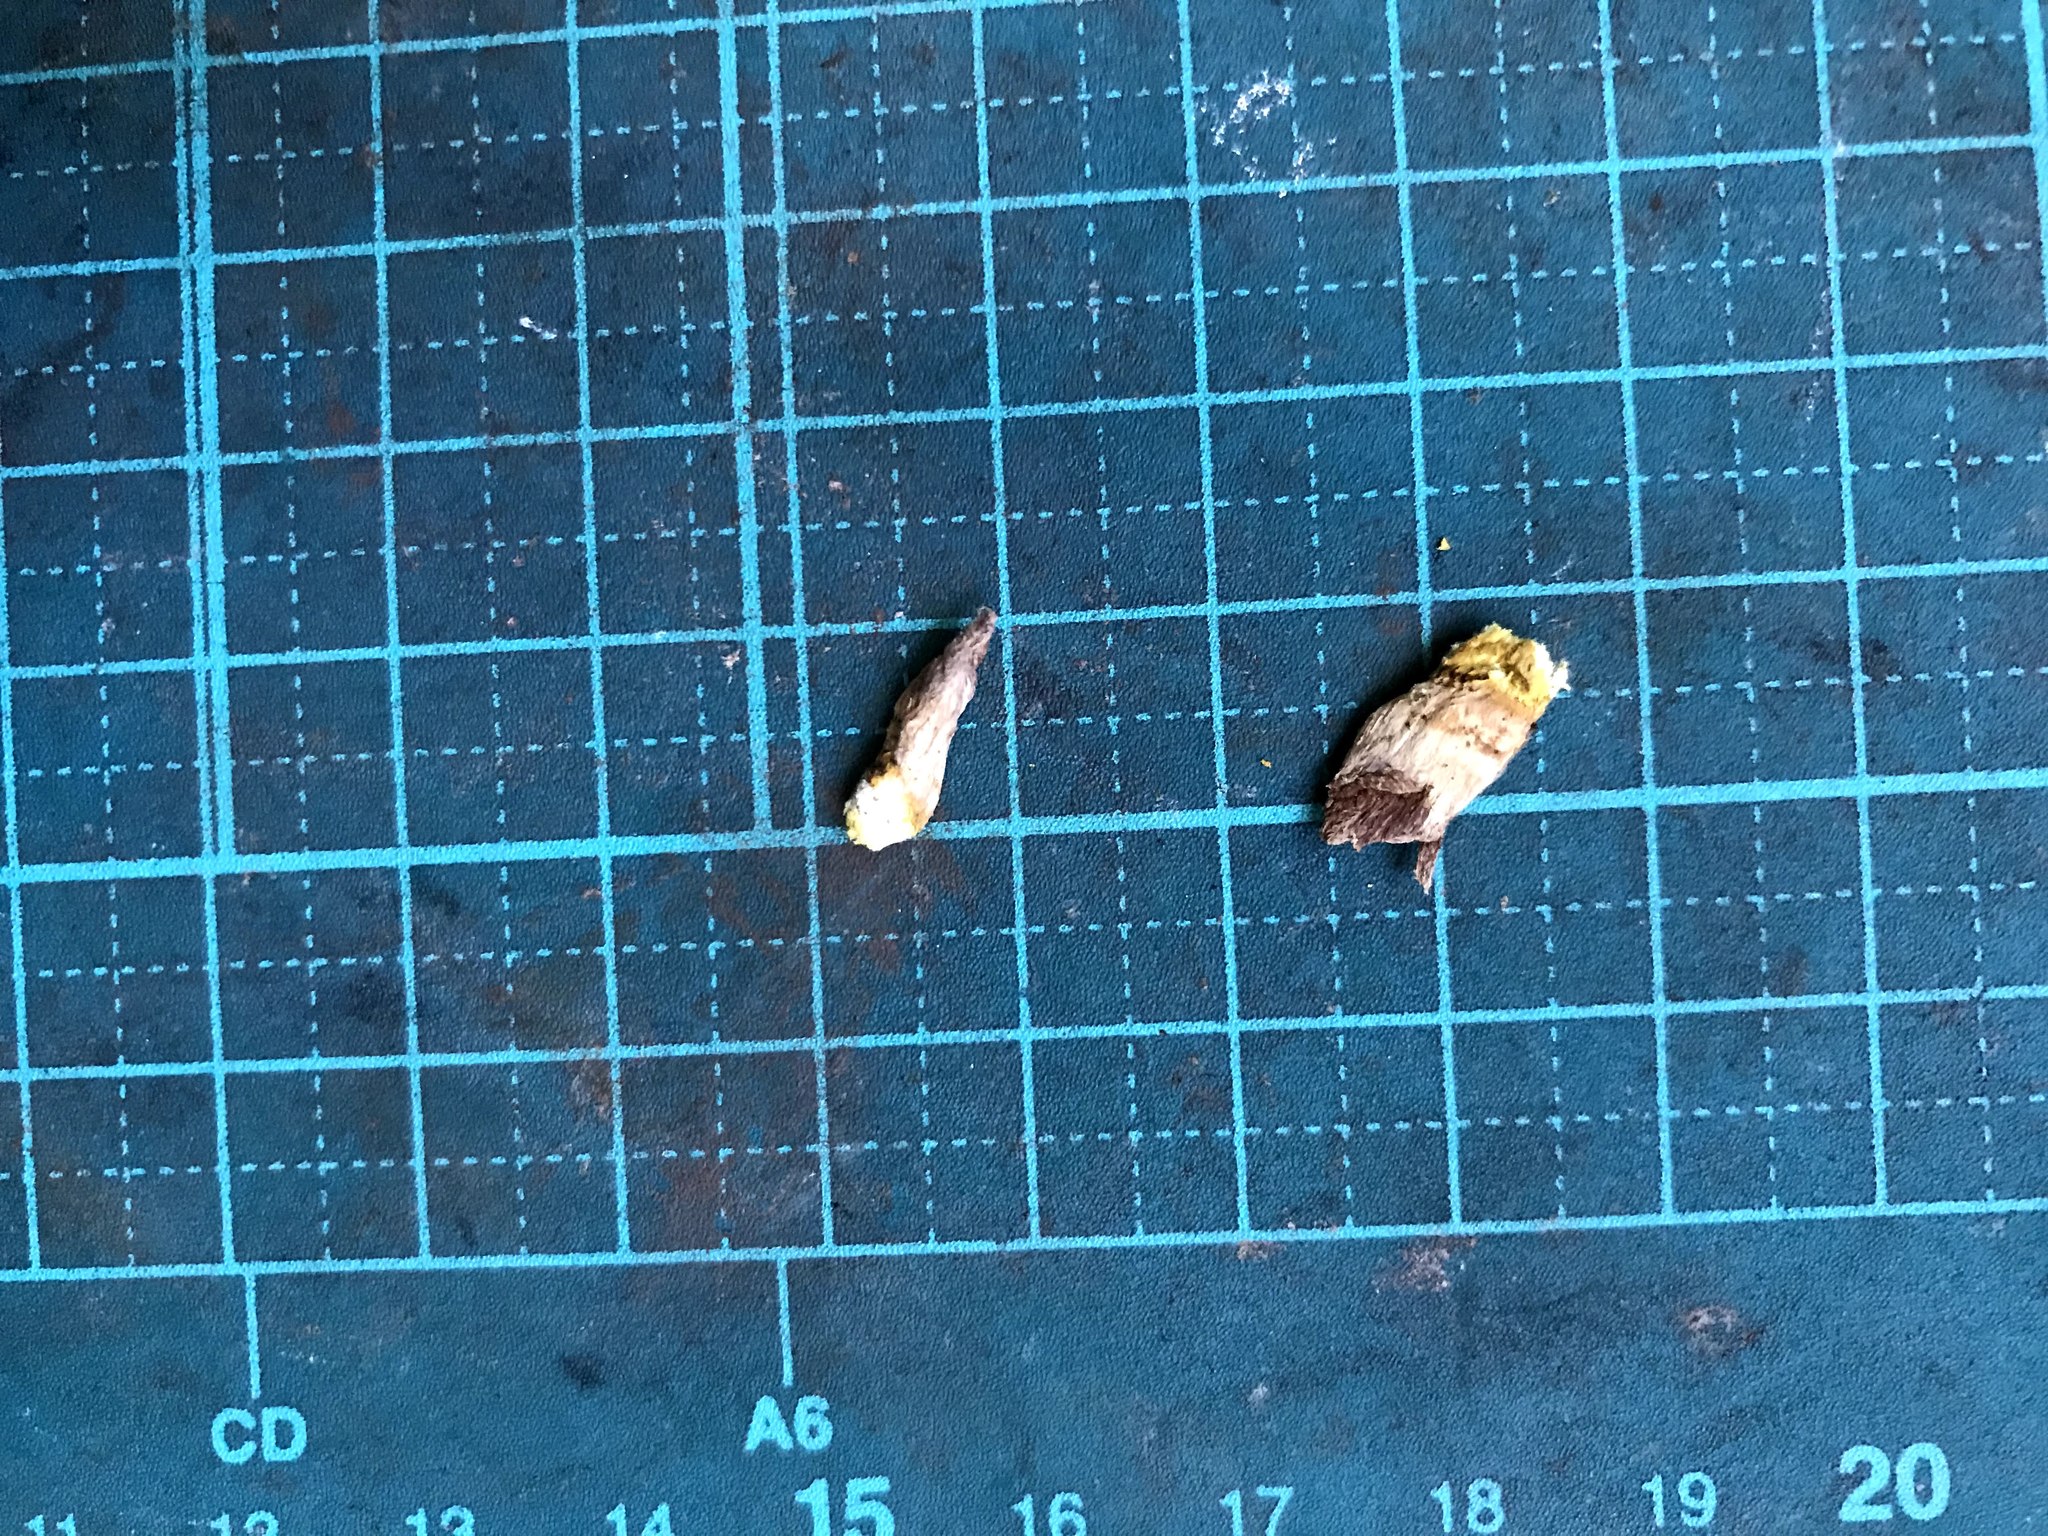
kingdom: Fungi
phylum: Ascomycota
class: Eurotiomycetes
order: Eurotiales
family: Trichocomaceae
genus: Trichocoma
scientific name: Trichocoma paradoxa
